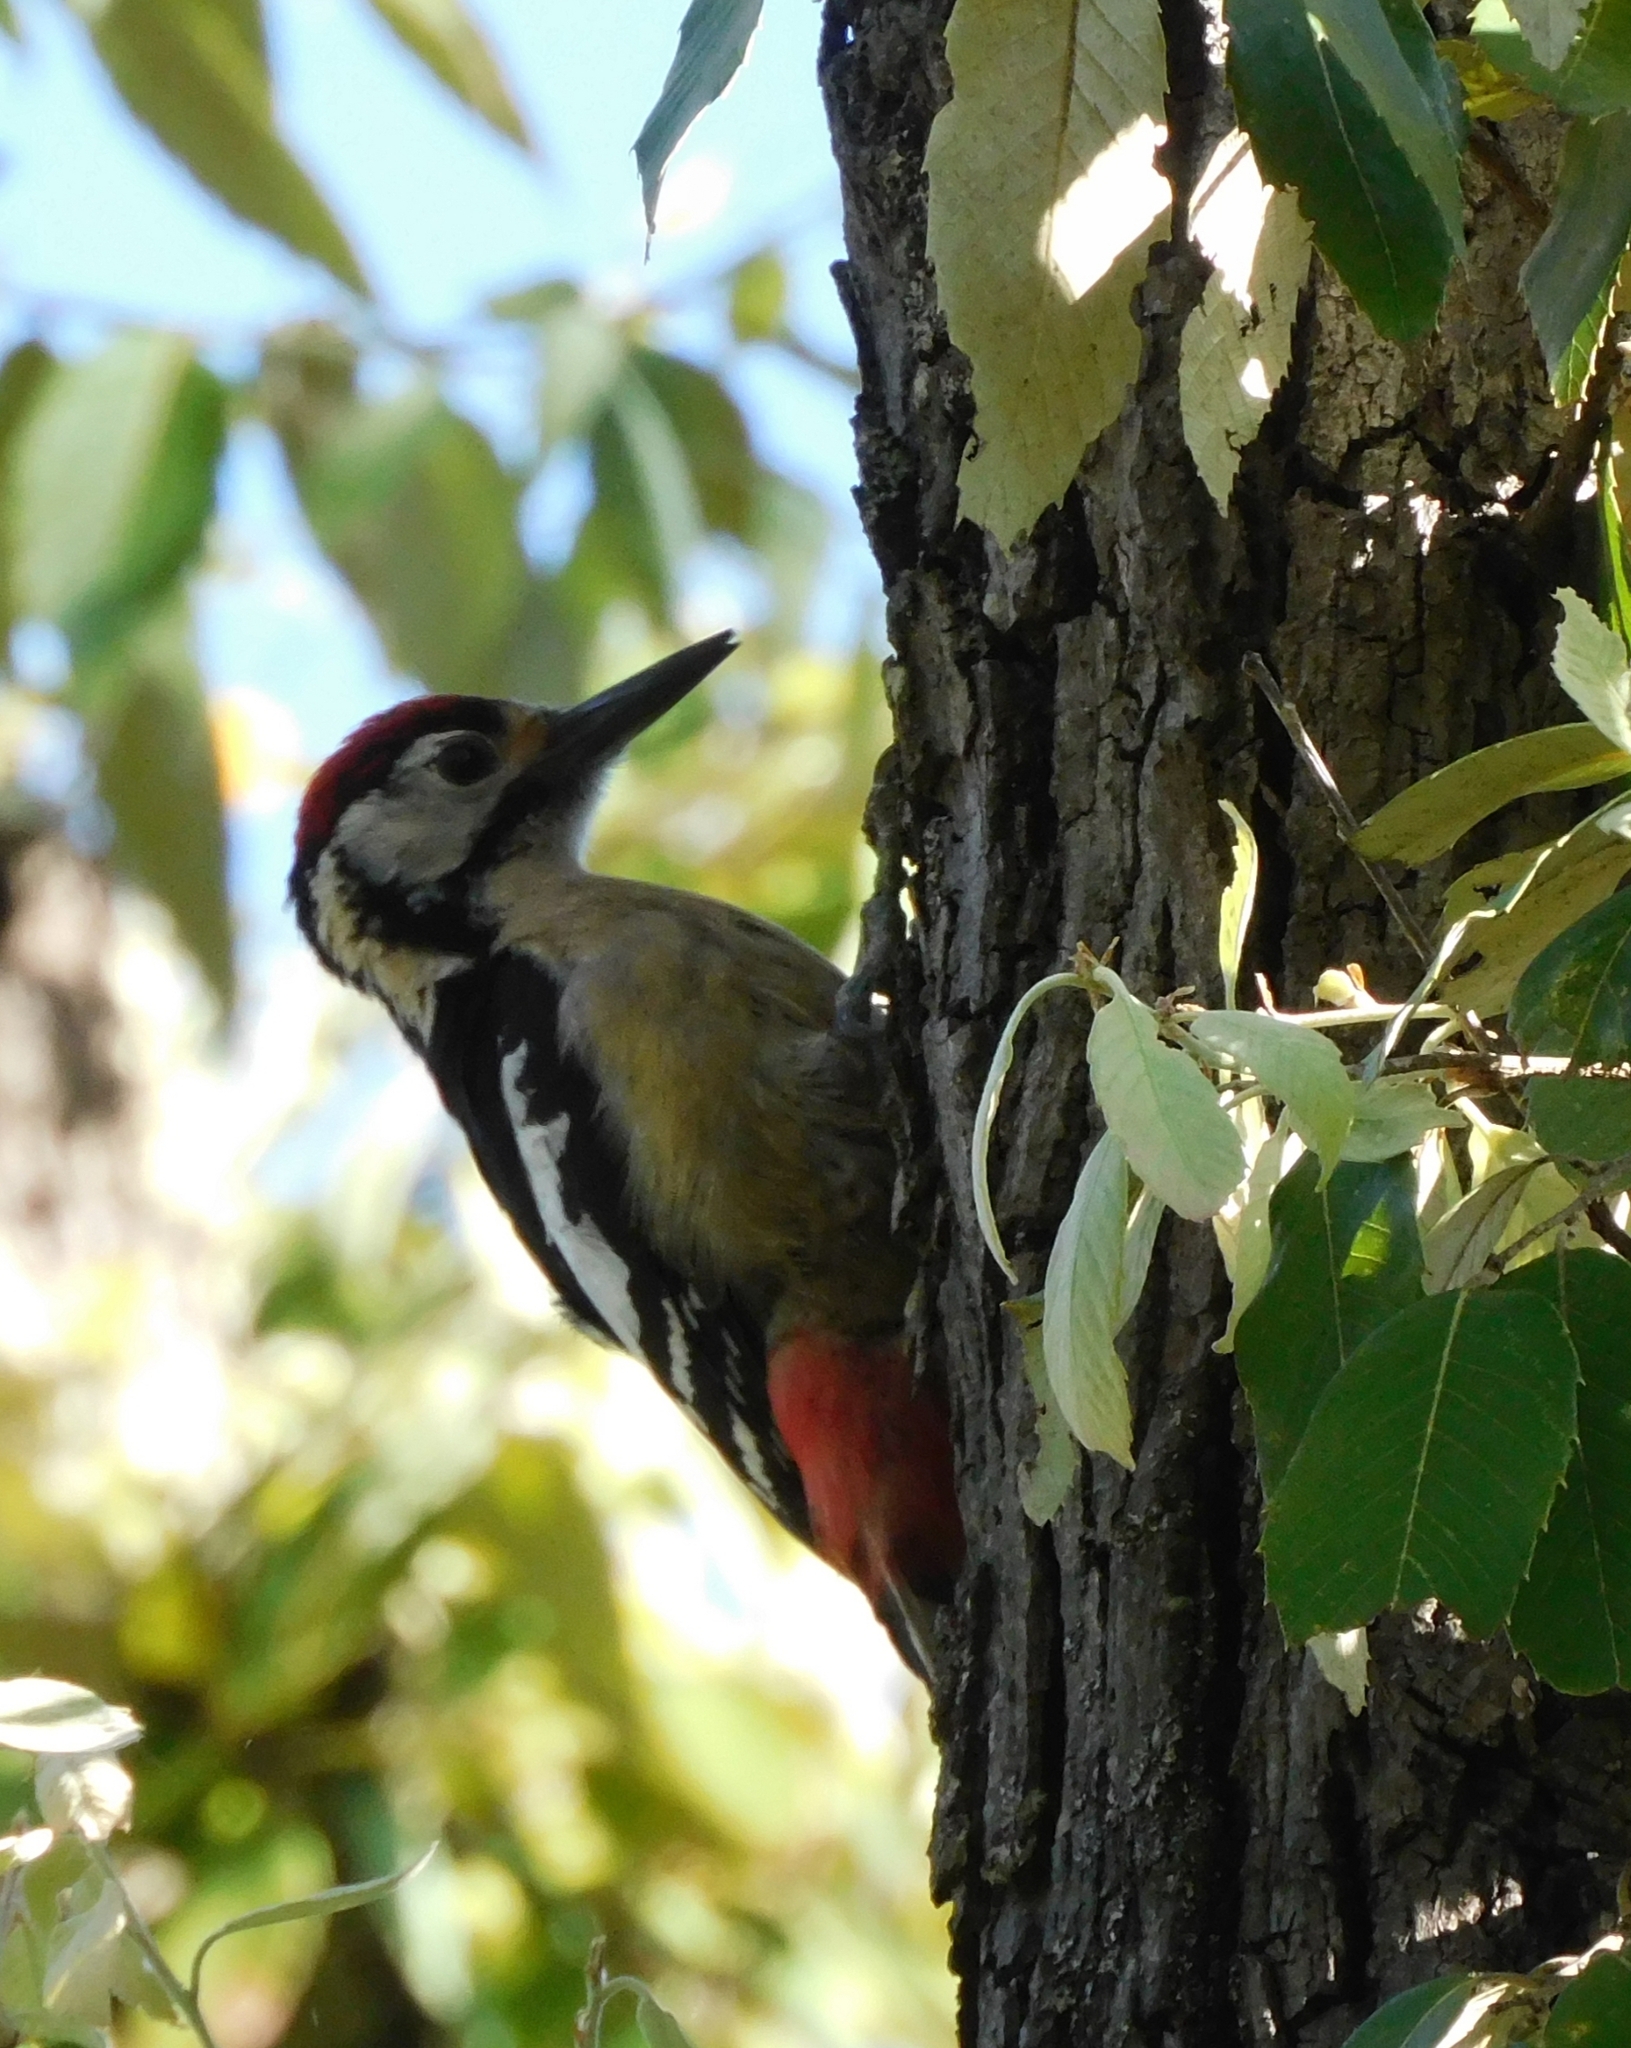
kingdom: Animalia
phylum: Chordata
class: Aves
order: Piciformes
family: Picidae
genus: Dendrocopos
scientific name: Dendrocopos himalayensis
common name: Himalayan woodpecker
